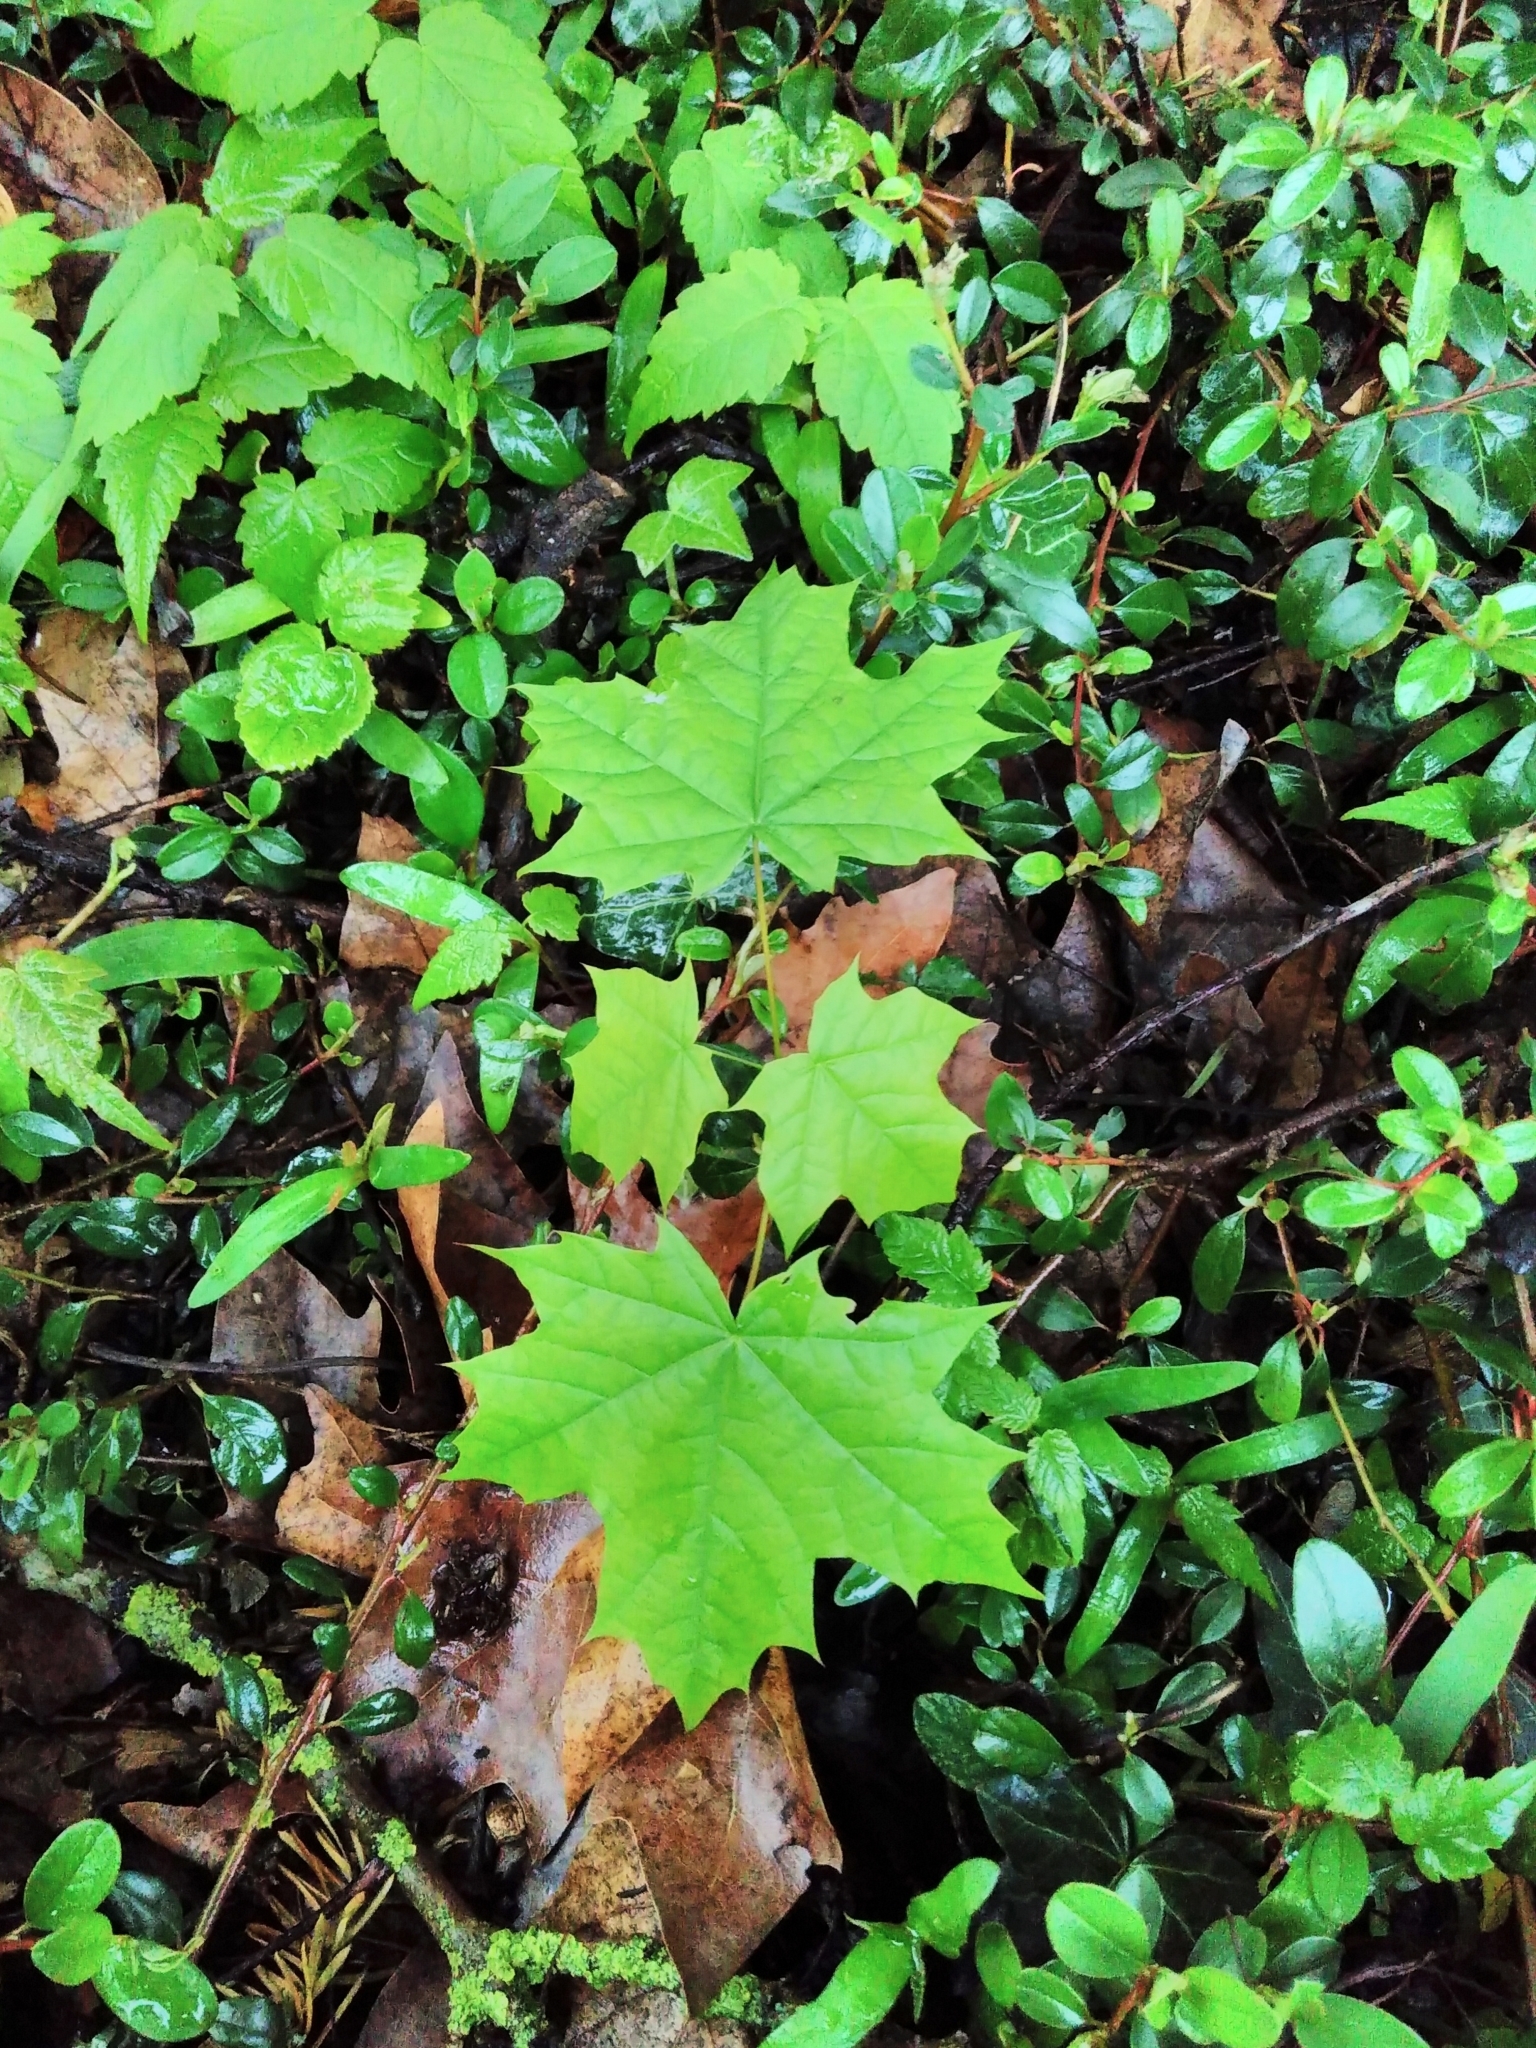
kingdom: Plantae
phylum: Tracheophyta
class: Magnoliopsida
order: Sapindales
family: Sapindaceae
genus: Acer
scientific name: Acer platanoides
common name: Norway maple
